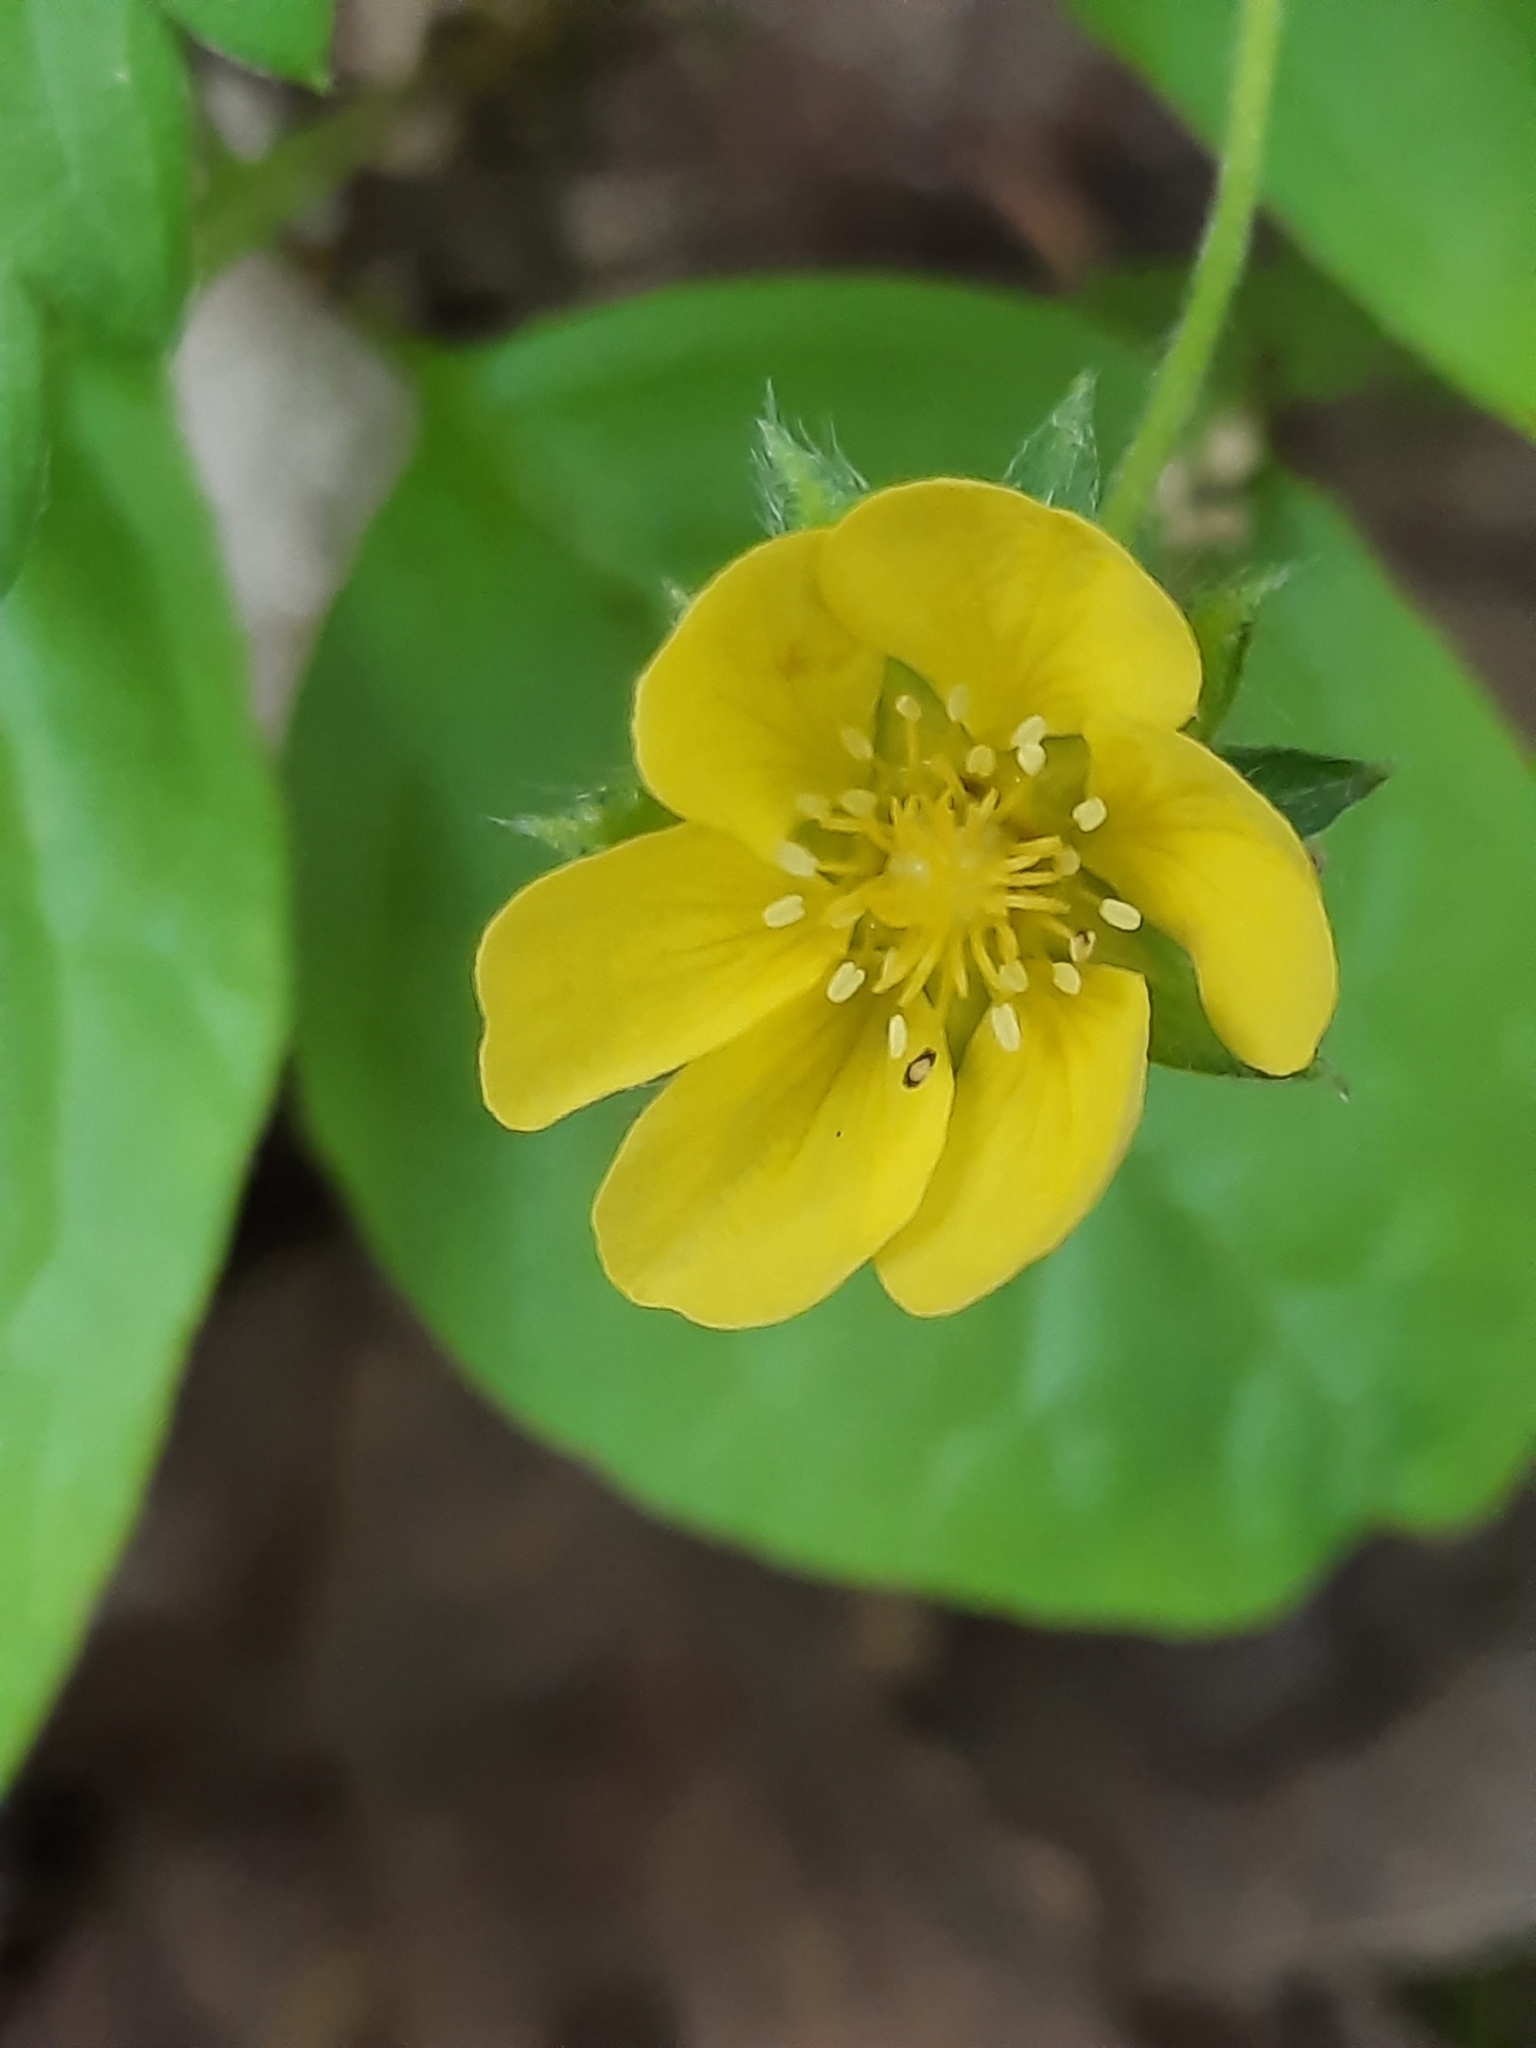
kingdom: Plantae
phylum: Tracheophyta
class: Magnoliopsida
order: Rosales
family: Rosaceae
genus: Potentilla
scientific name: Potentilla simplex
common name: Old field cinquefoil
